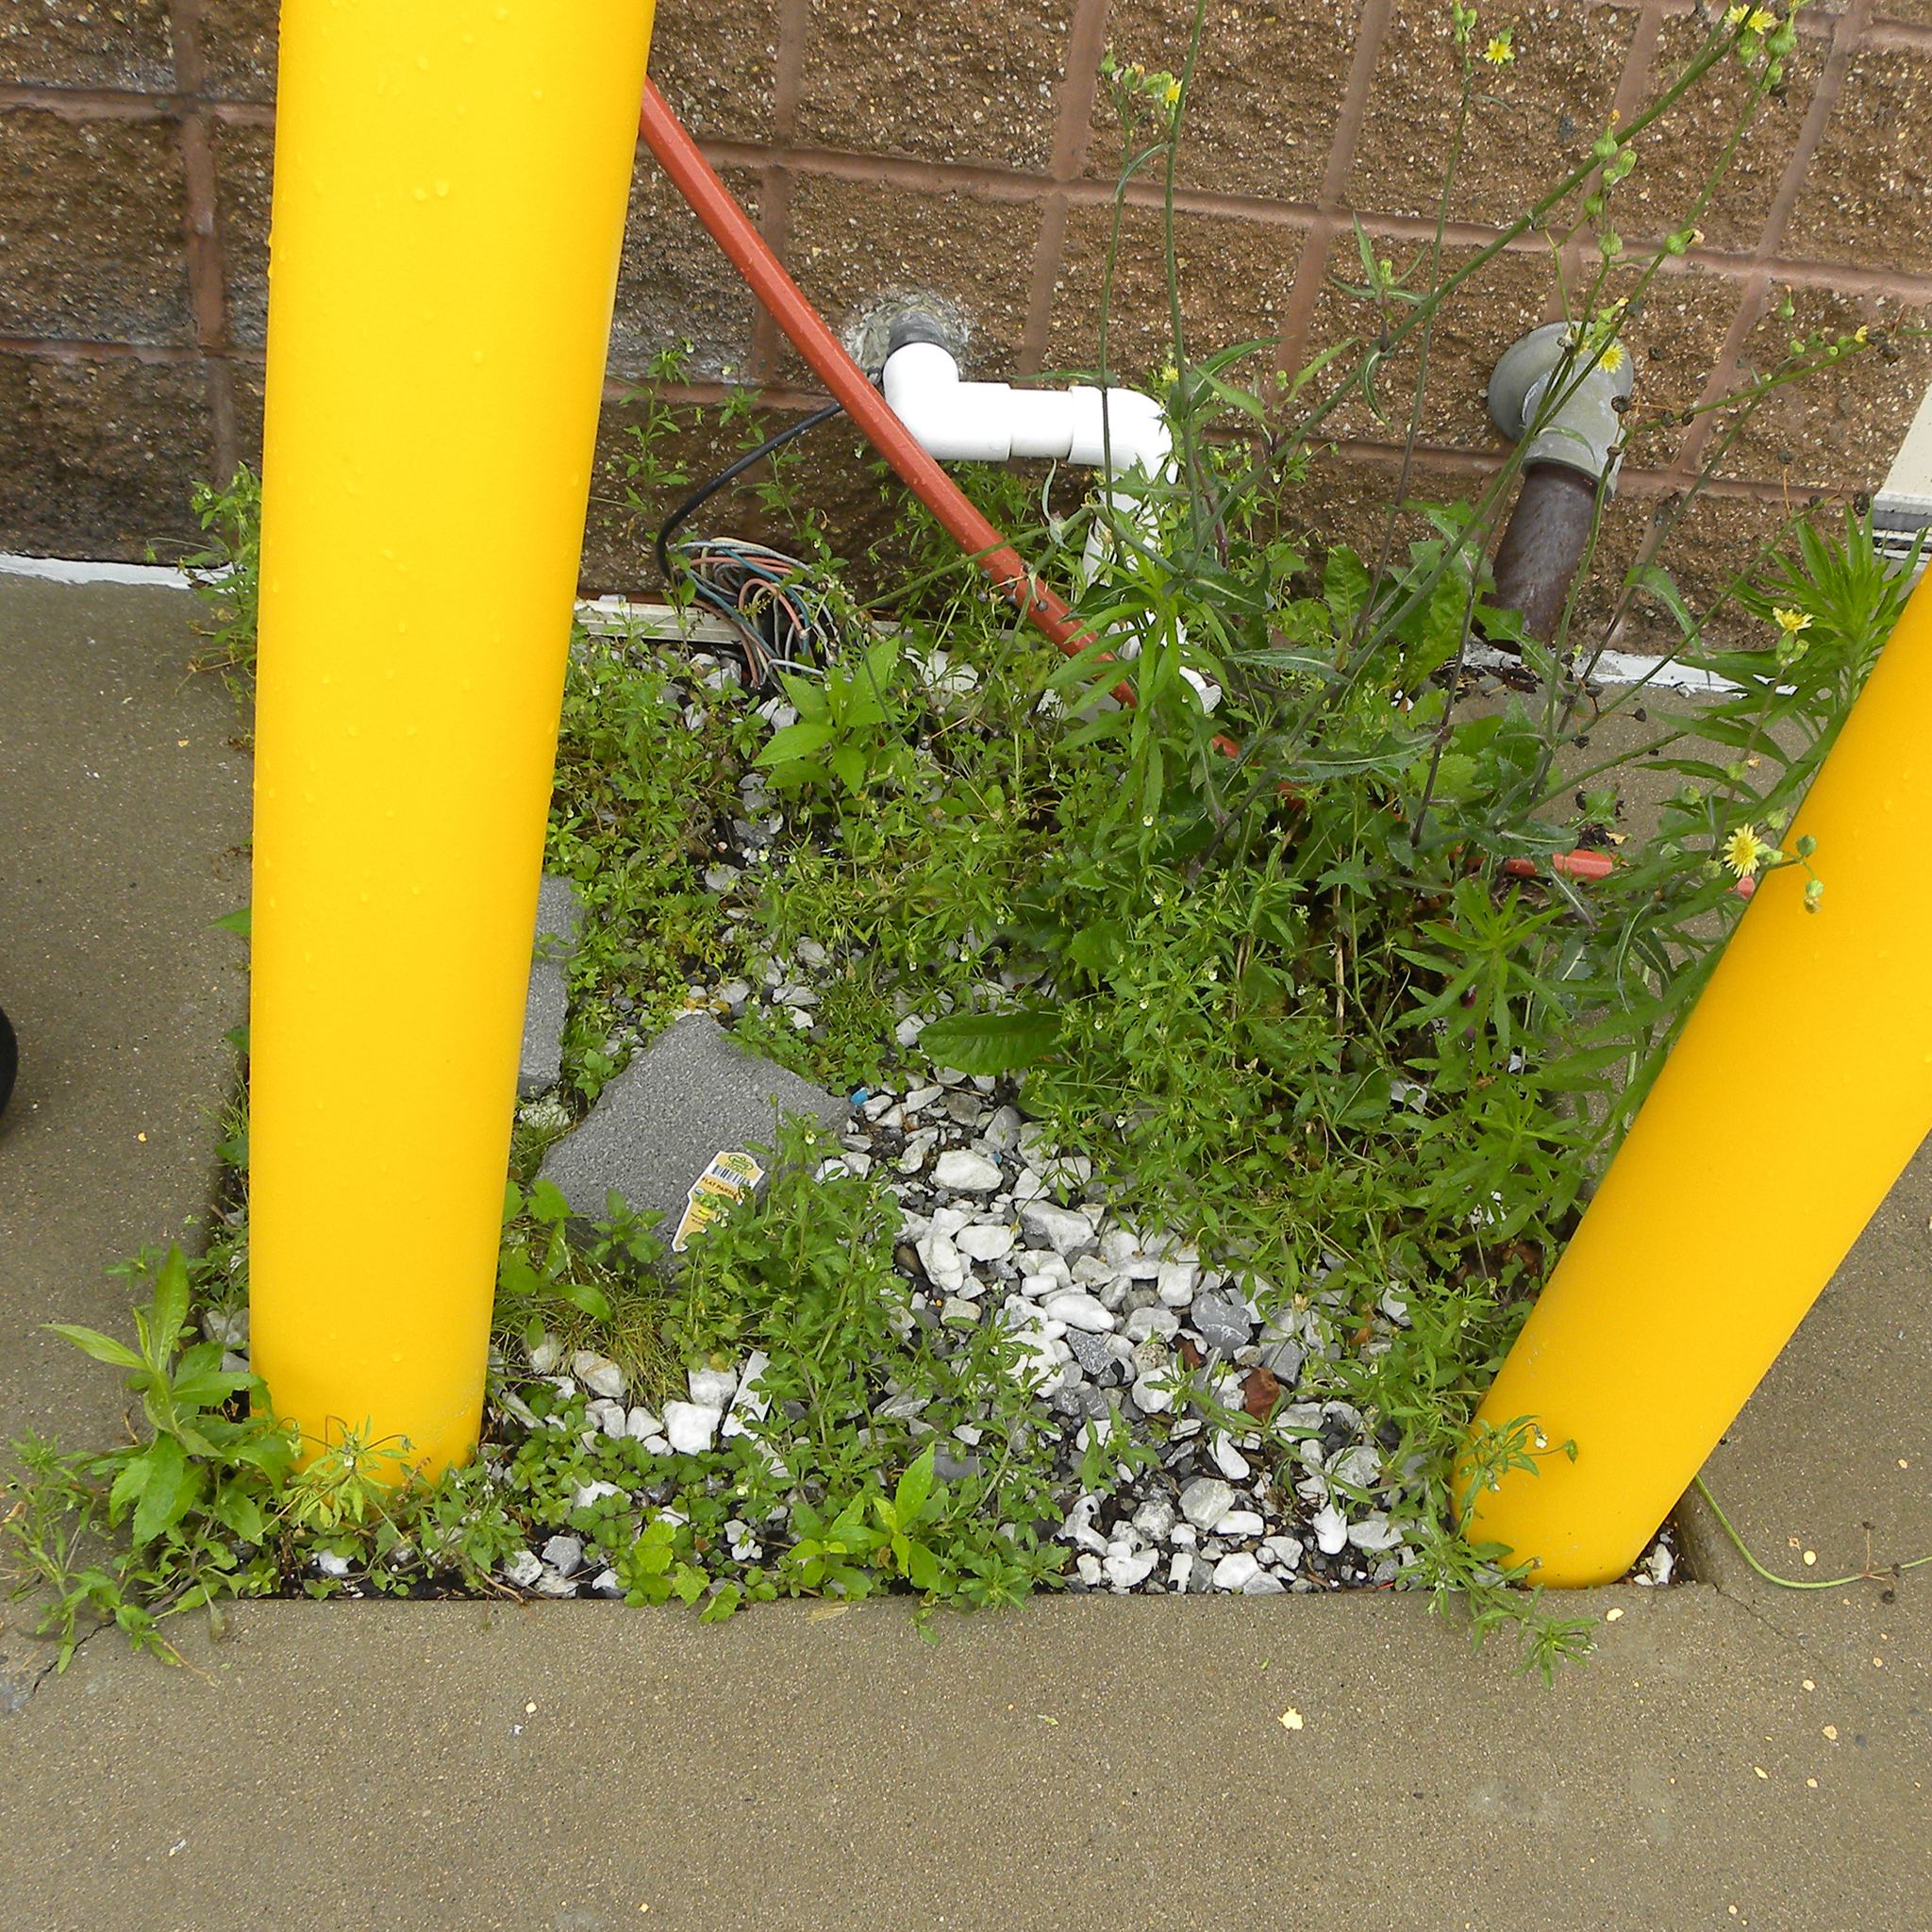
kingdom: Plantae
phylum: Tracheophyta
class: Magnoliopsida
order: Malpighiales
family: Violaceae
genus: Viola
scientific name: Viola arvensis
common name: Field pansy
